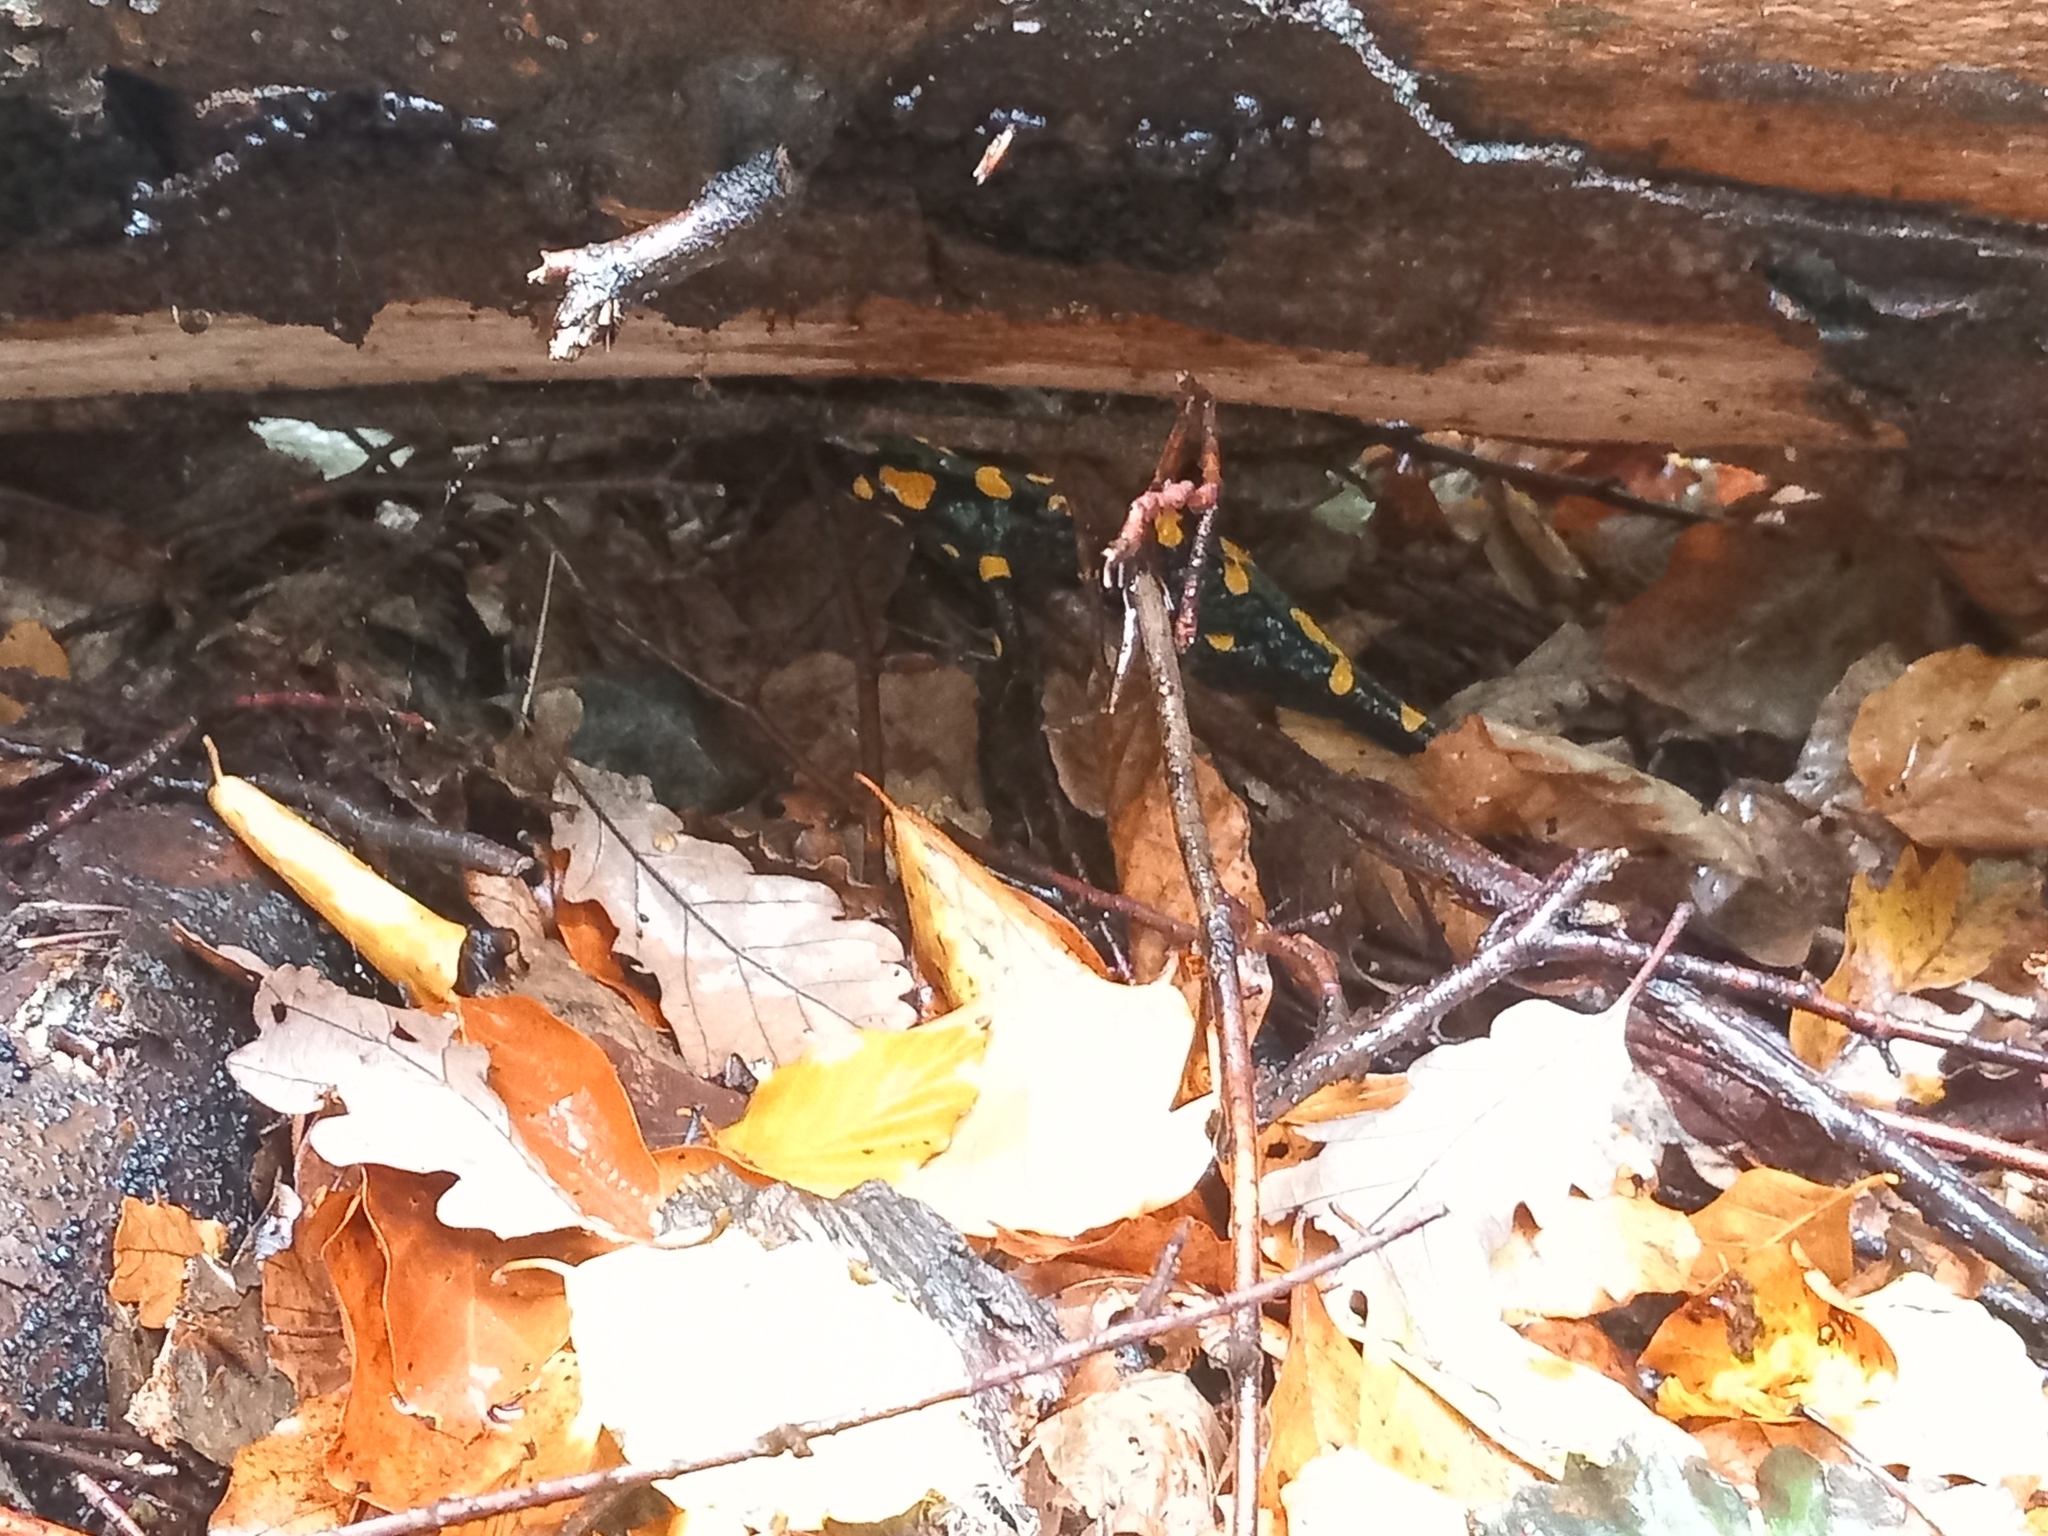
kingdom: Animalia
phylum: Chordata
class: Amphibia
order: Caudata
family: Salamandridae
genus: Salamandra
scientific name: Salamandra salamandra
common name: Fire salamander
